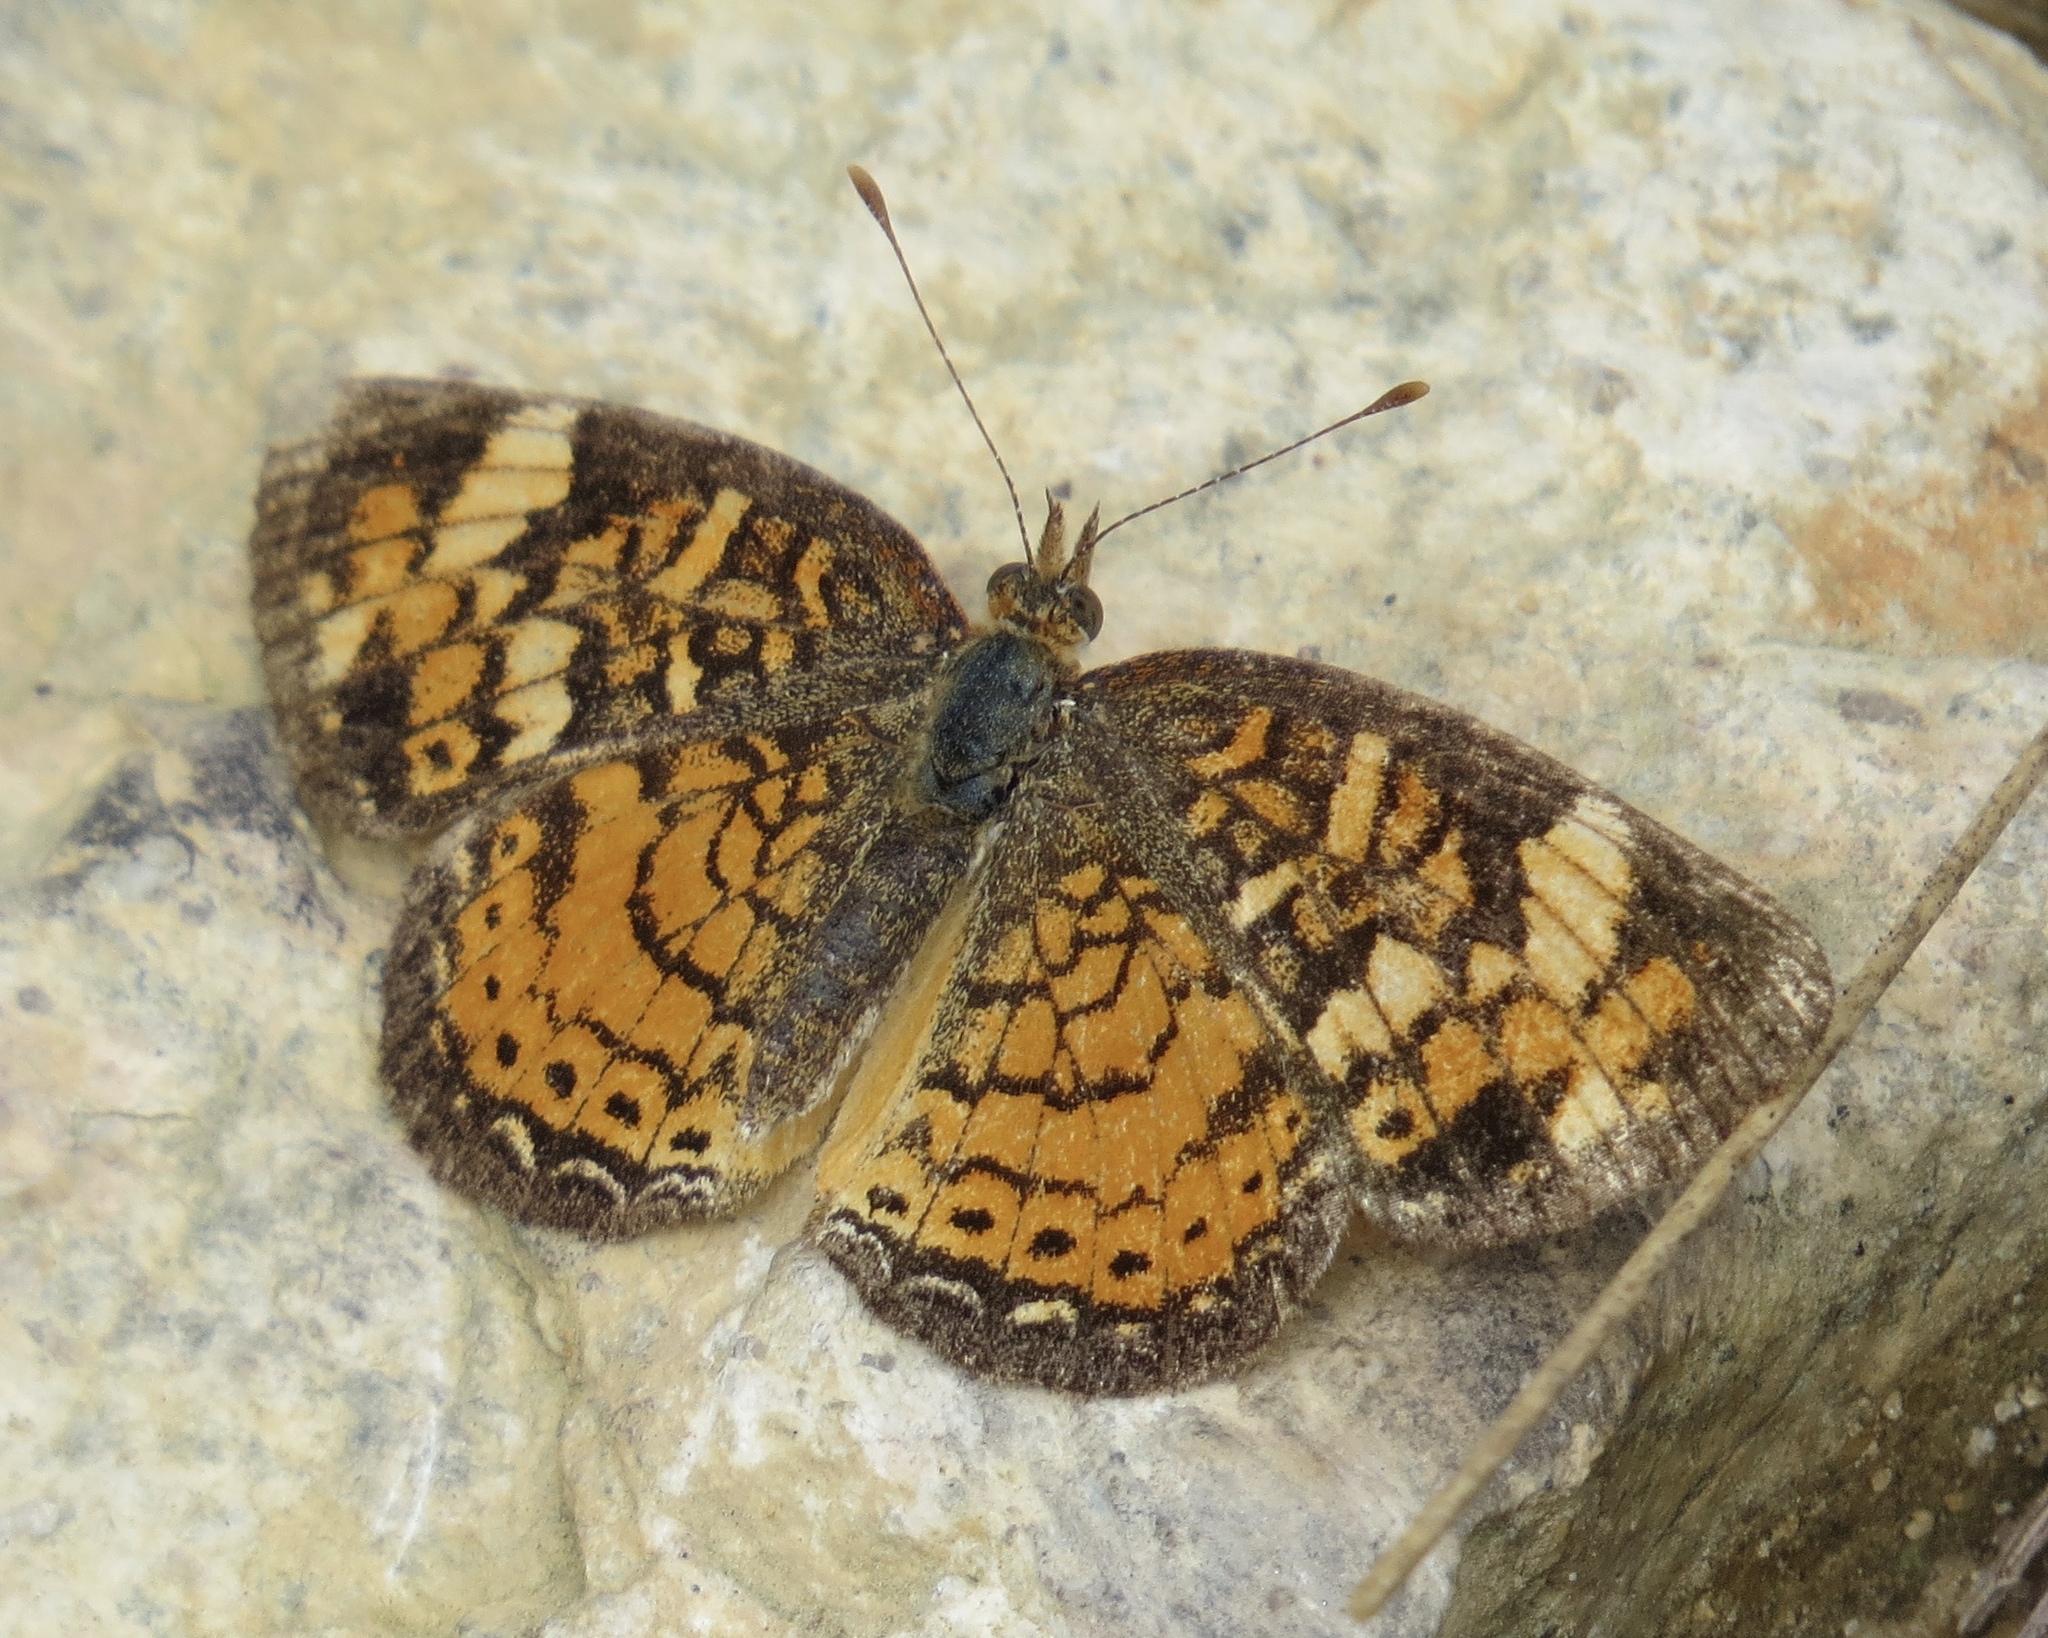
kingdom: Animalia
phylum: Arthropoda
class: Insecta
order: Lepidoptera
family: Nymphalidae
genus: Phyciodes
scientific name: Phyciodes tharos
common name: Pearl crescent
